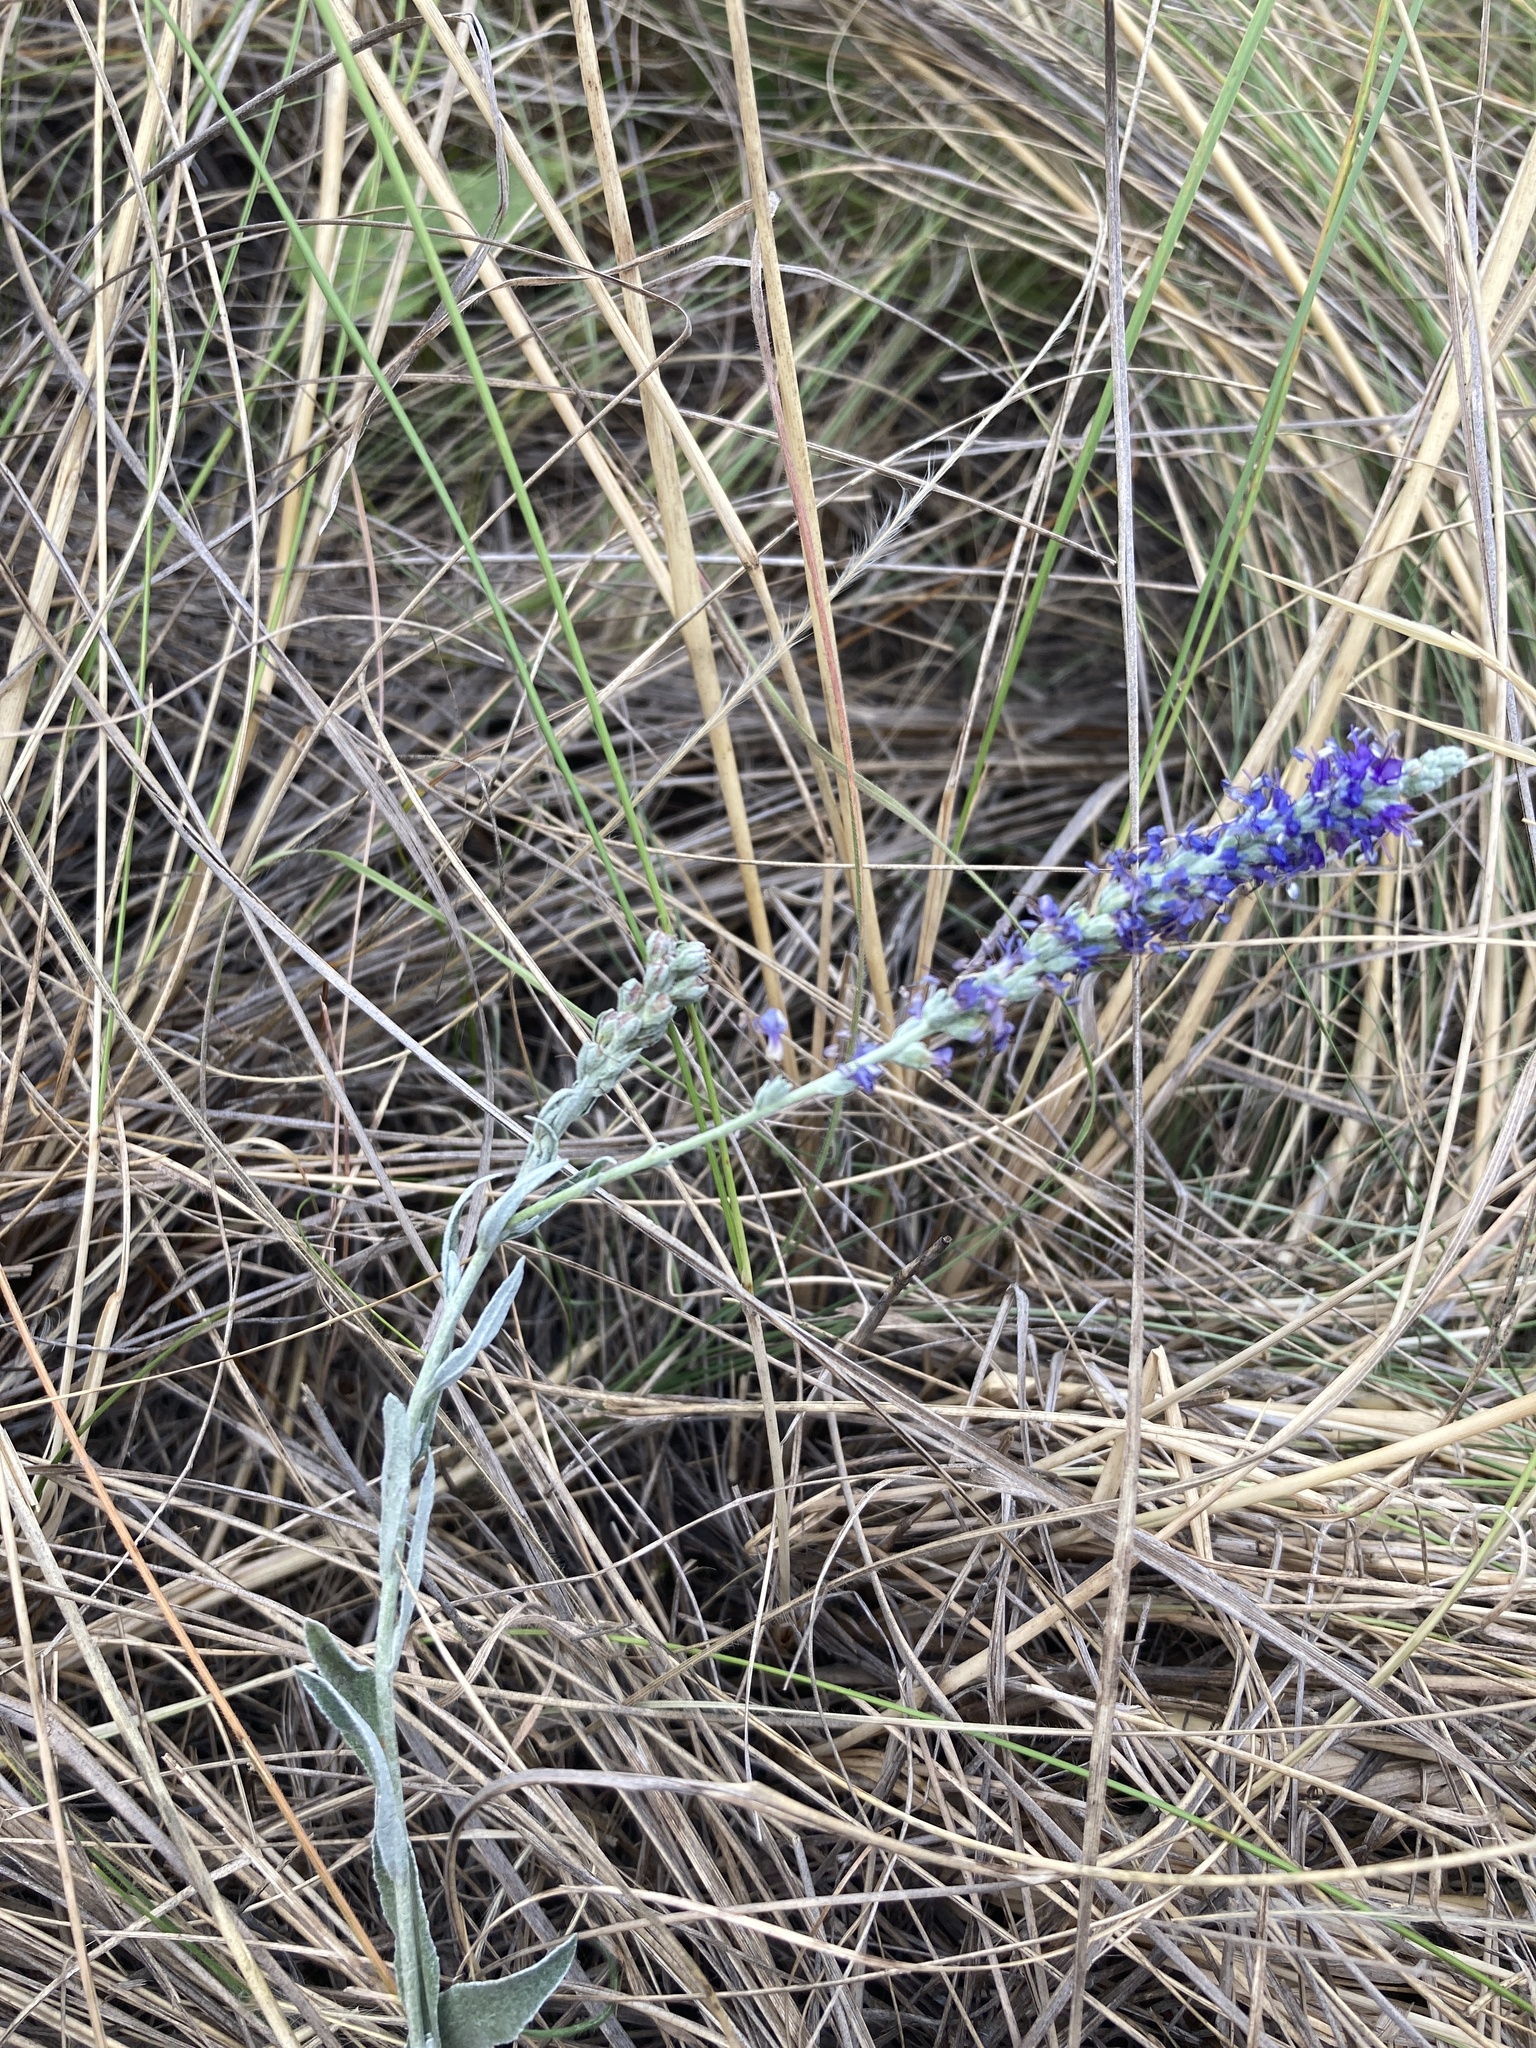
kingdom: Plantae
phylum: Tracheophyta
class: Magnoliopsida
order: Lamiales
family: Plantaginaceae
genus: Veronica
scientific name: Veronica incana
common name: Silver speedwell
